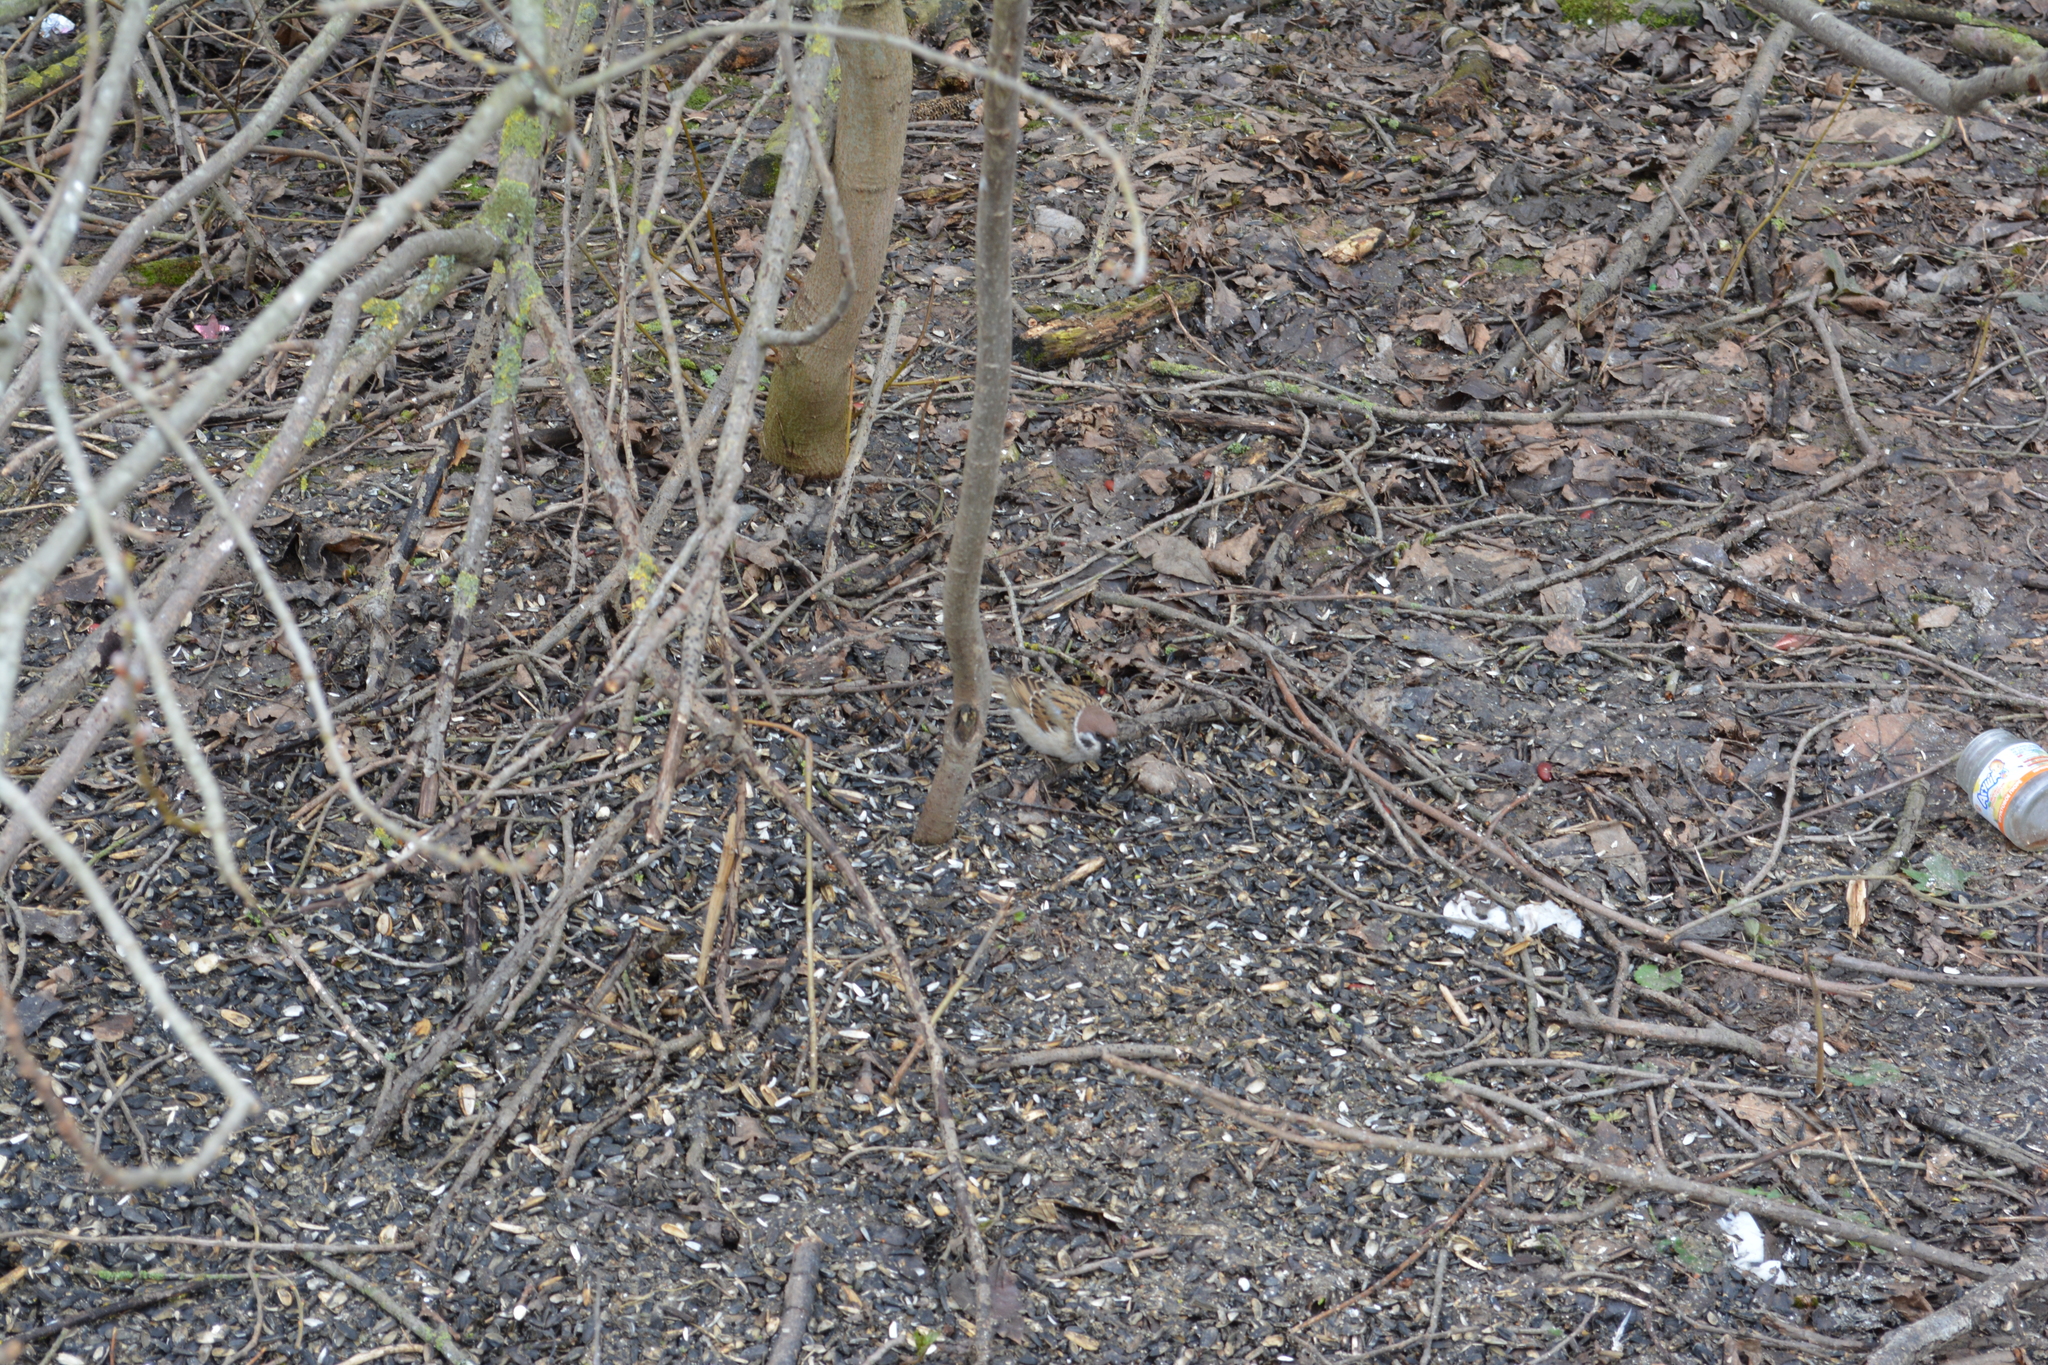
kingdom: Animalia
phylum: Chordata
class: Aves
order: Passeriformes
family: Passeridae
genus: Passer
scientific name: Passer montanus
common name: Eurasian tree sparrow
